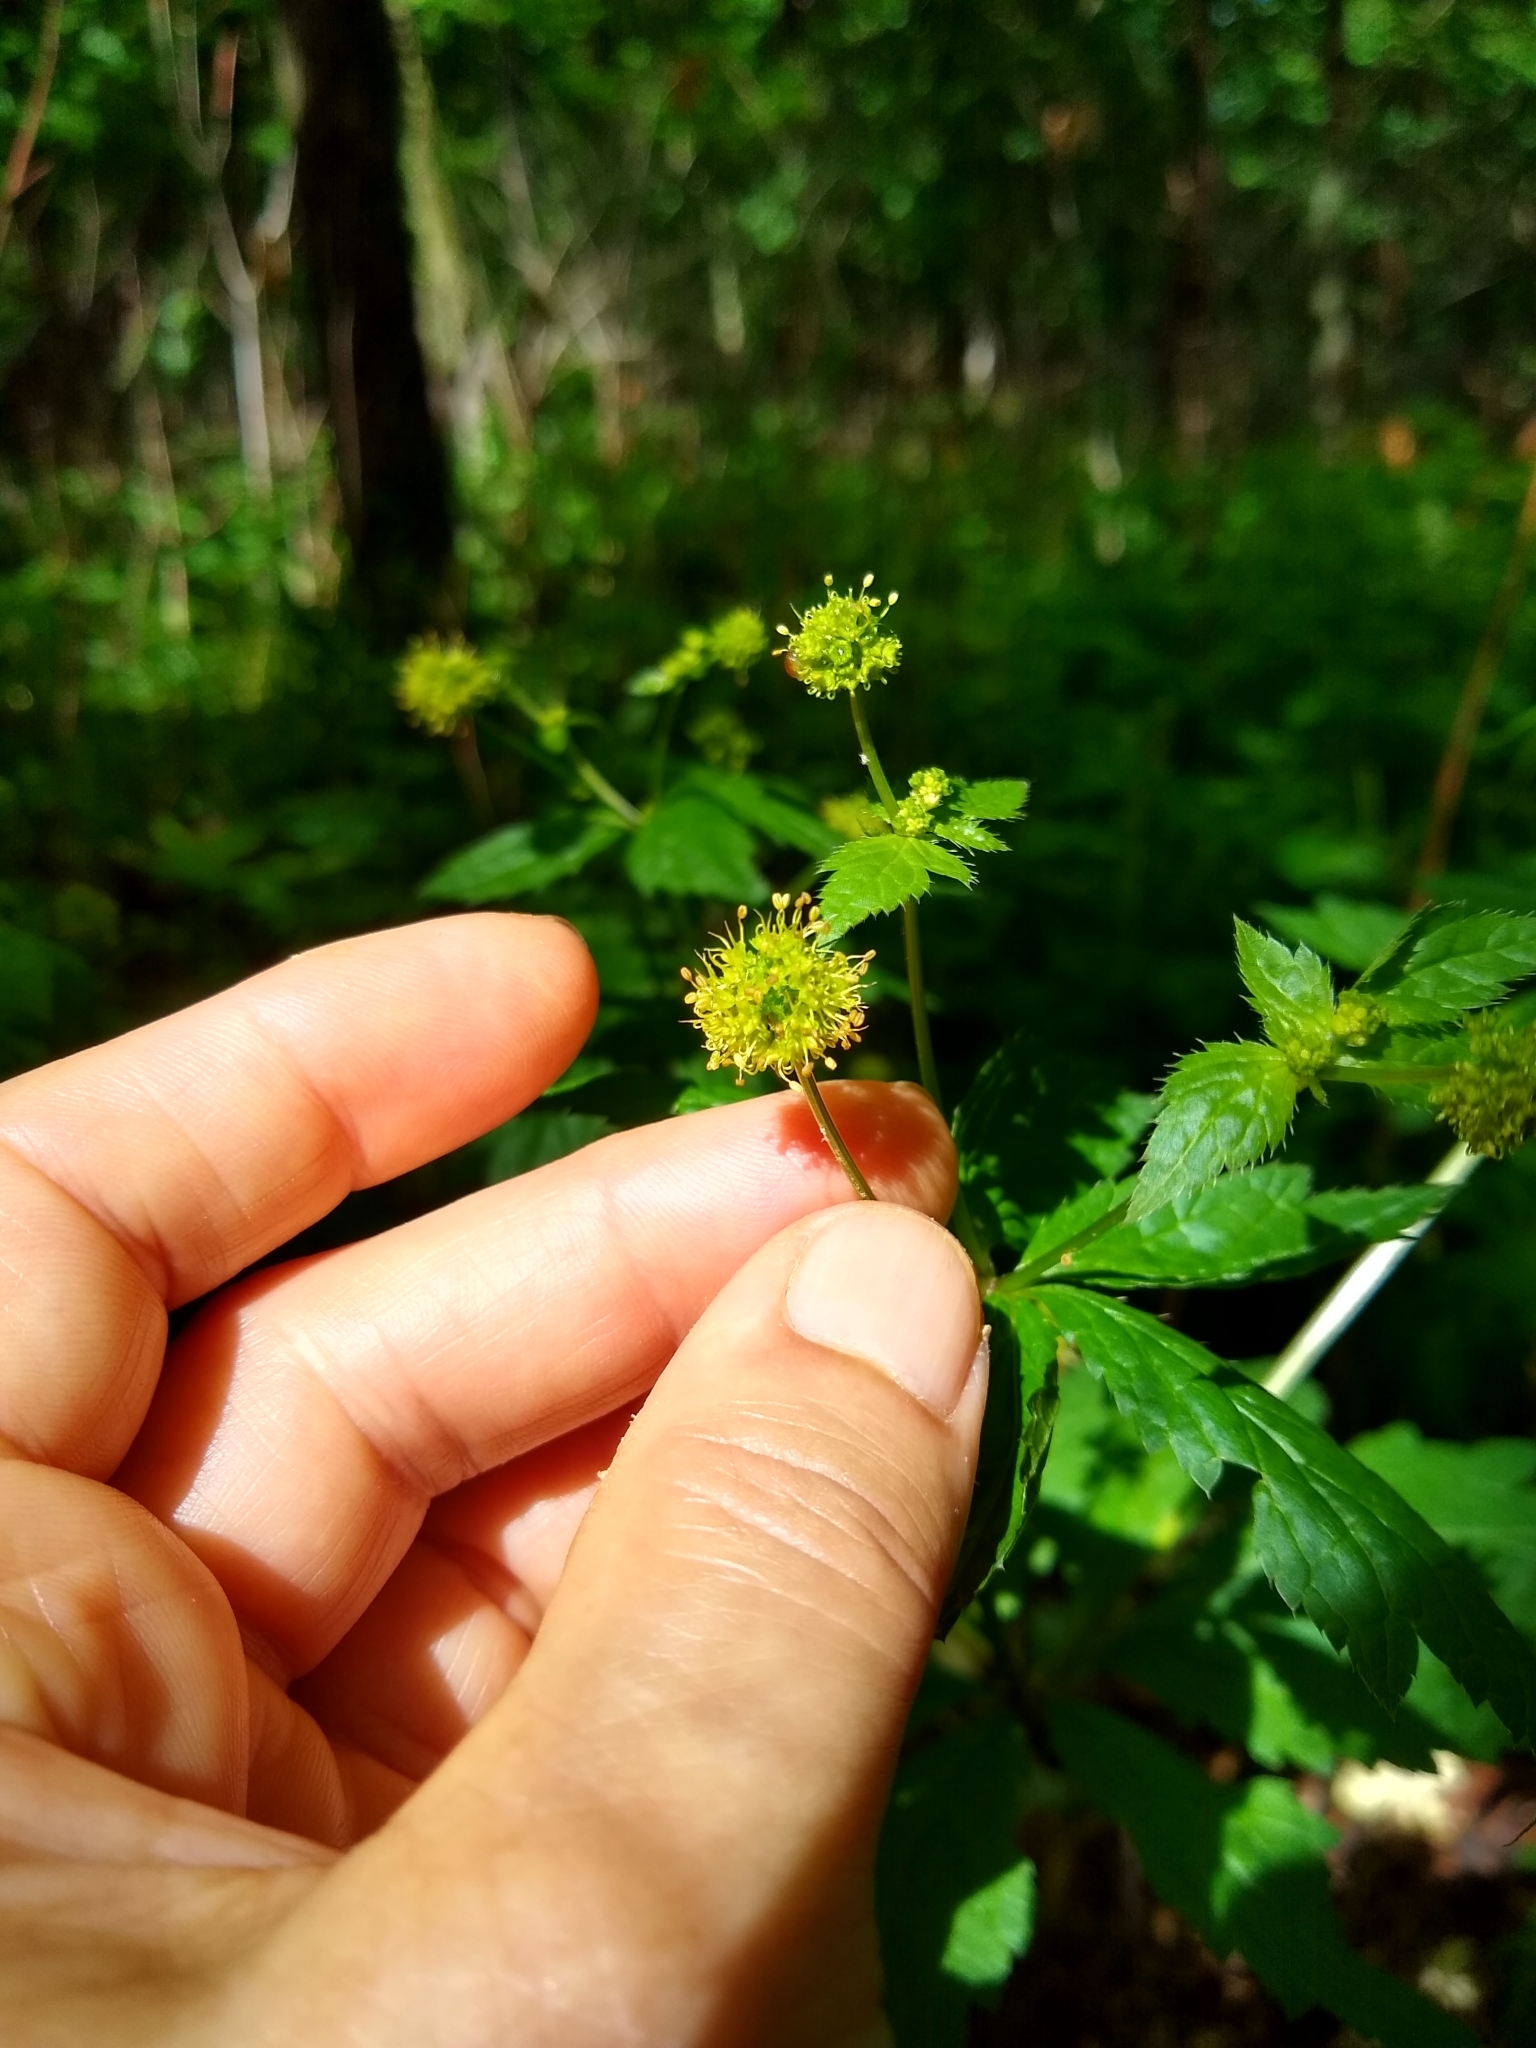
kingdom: Plantae
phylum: Tracheophyta
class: Magnoliopsida
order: Apiales
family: Apiaceae
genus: Sanicula
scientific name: Sanicula odorata
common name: Cluster sanicle
